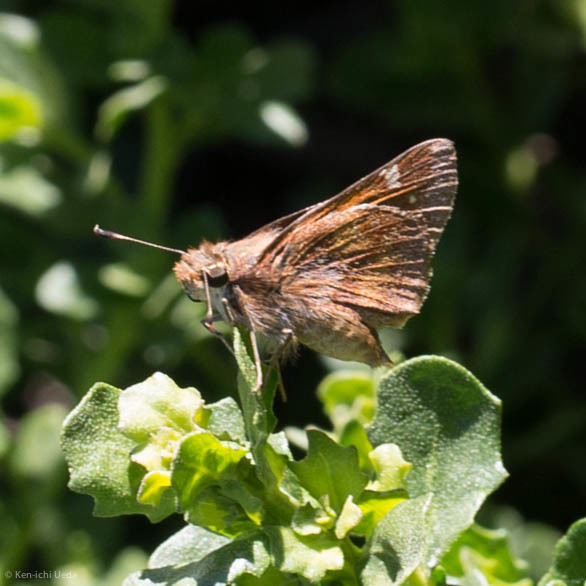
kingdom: Animalia
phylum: Arthropoda
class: Insecta
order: Lepidoptera
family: Hesperiidae
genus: Lon
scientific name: Lon melane
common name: Umber skipper
